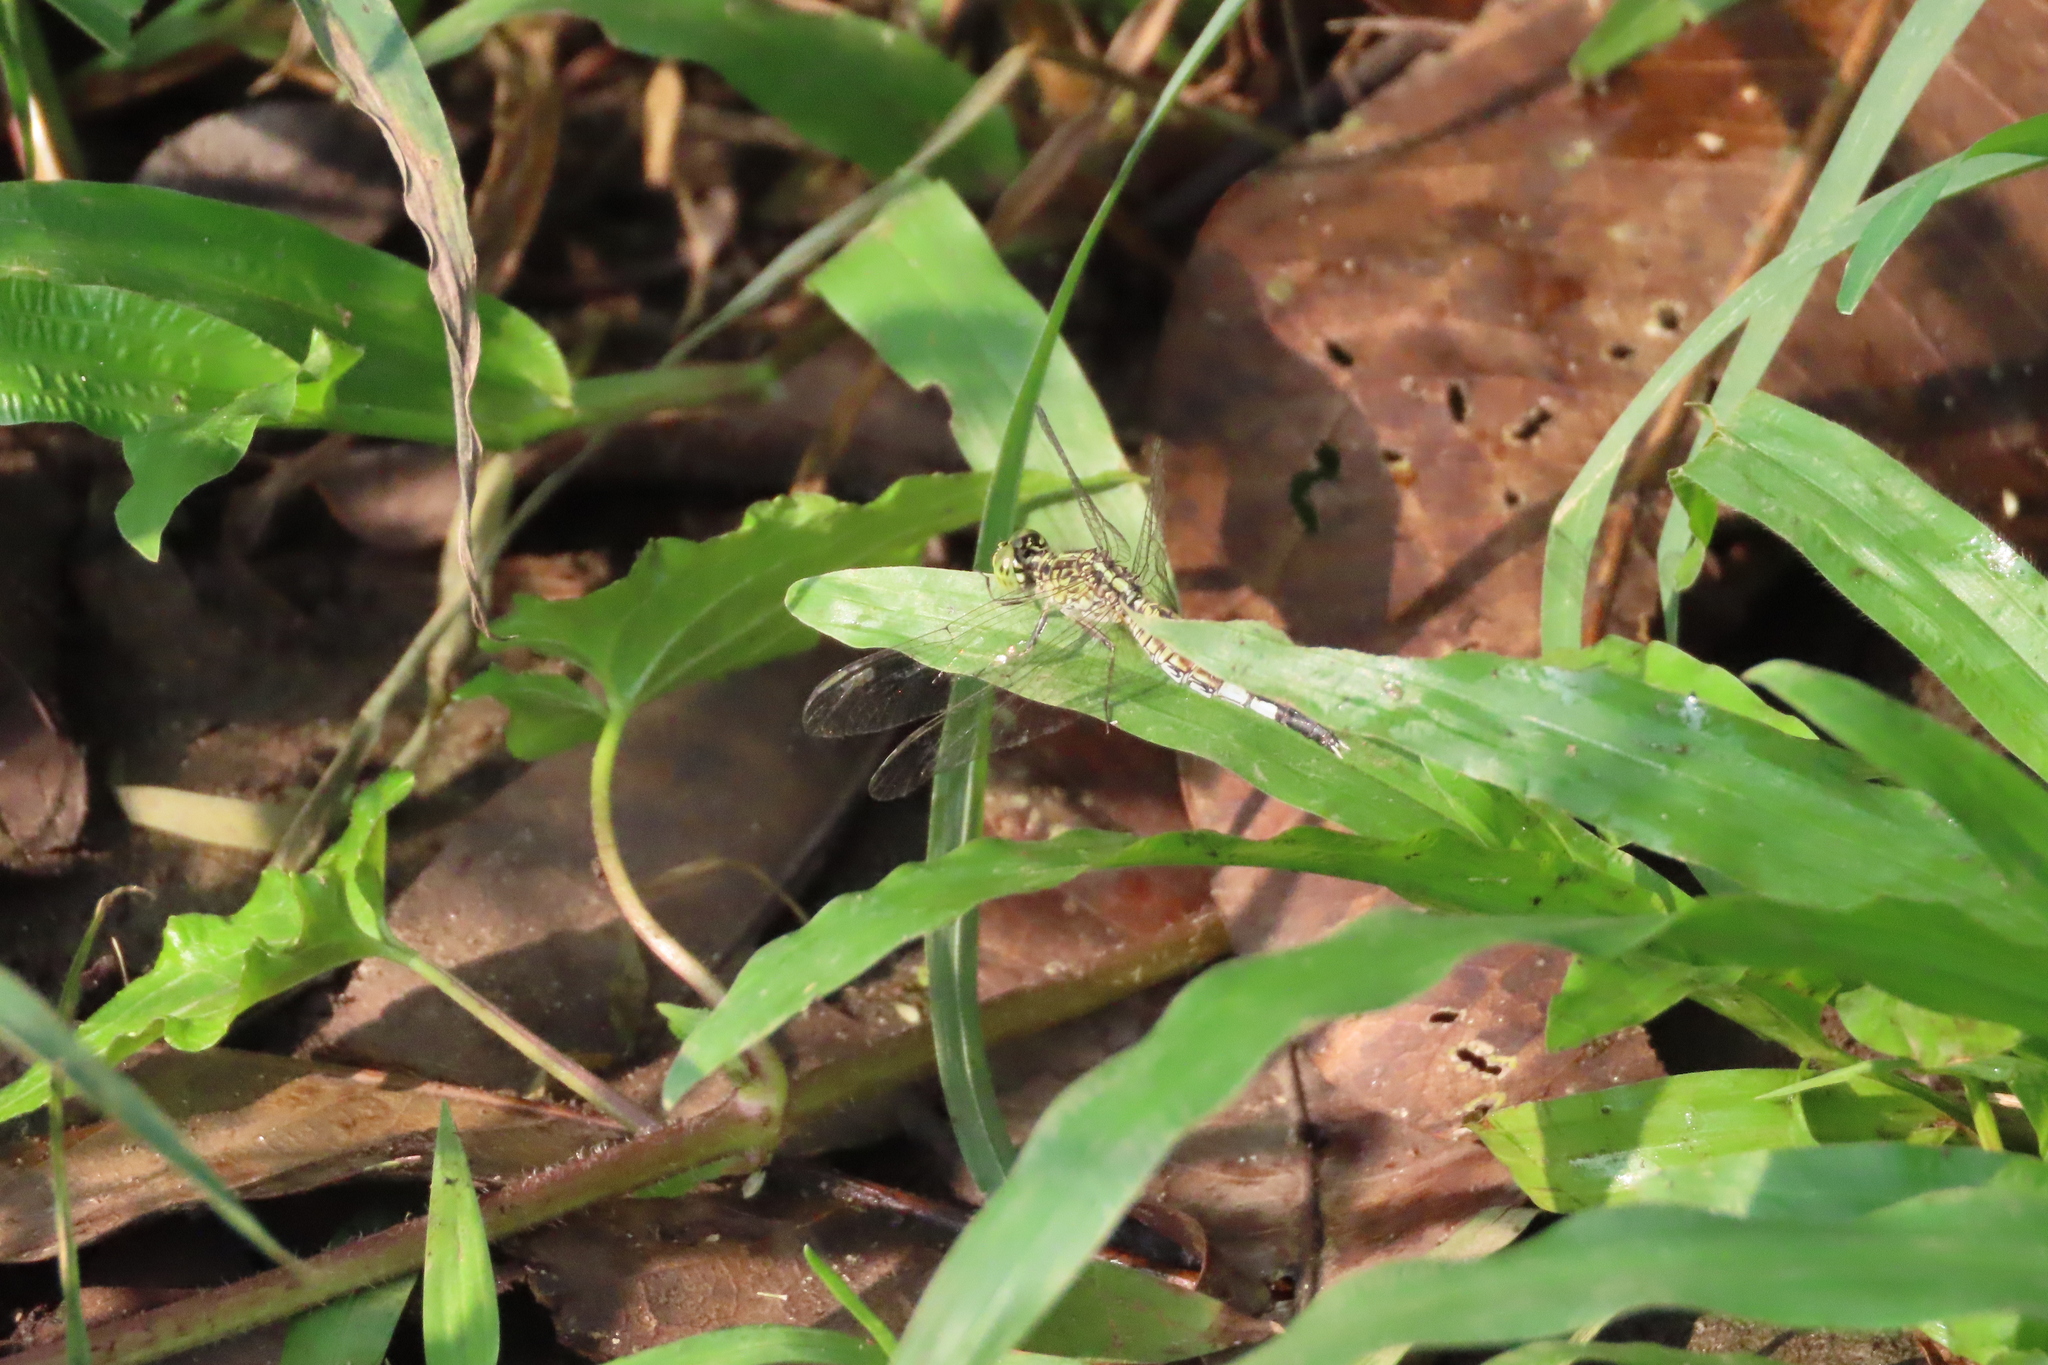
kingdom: Animalia
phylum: Arthropoda
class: Insecta
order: Odonata
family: Libellulidae
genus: Acisoma
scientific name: Acisoma panorpoides
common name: Asian pintail
